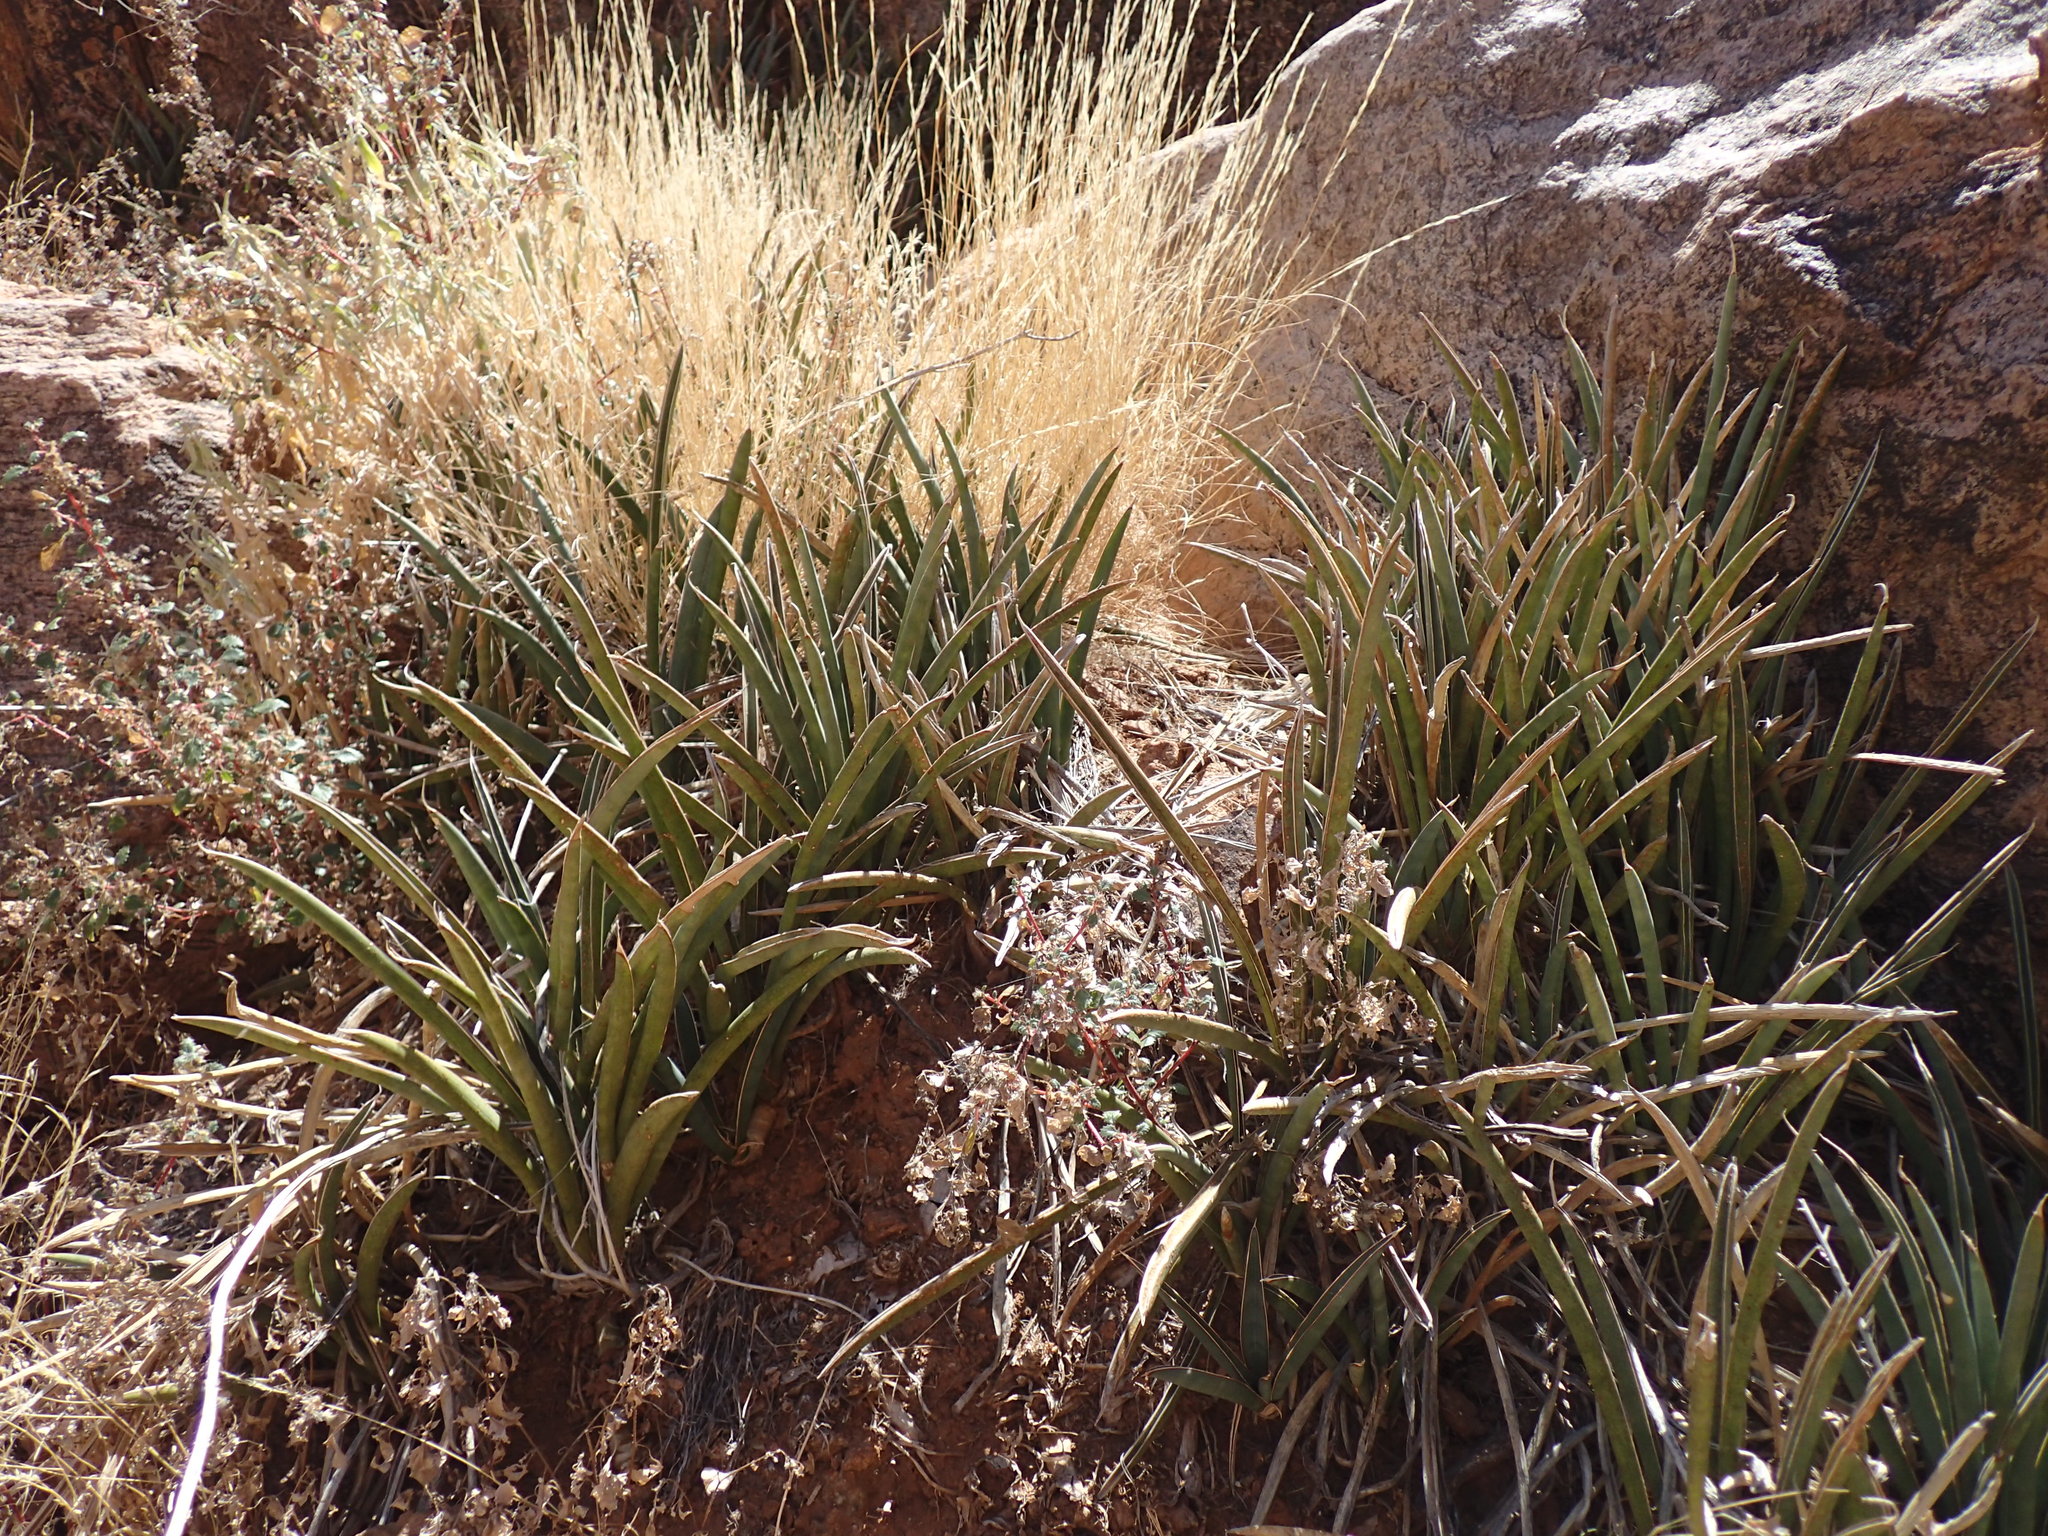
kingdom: Plantae
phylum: Tracheophyta
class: Liliopsida
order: Asparagales
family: Asparagaceae
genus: Dracaena
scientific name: Dracaena aethiopica
